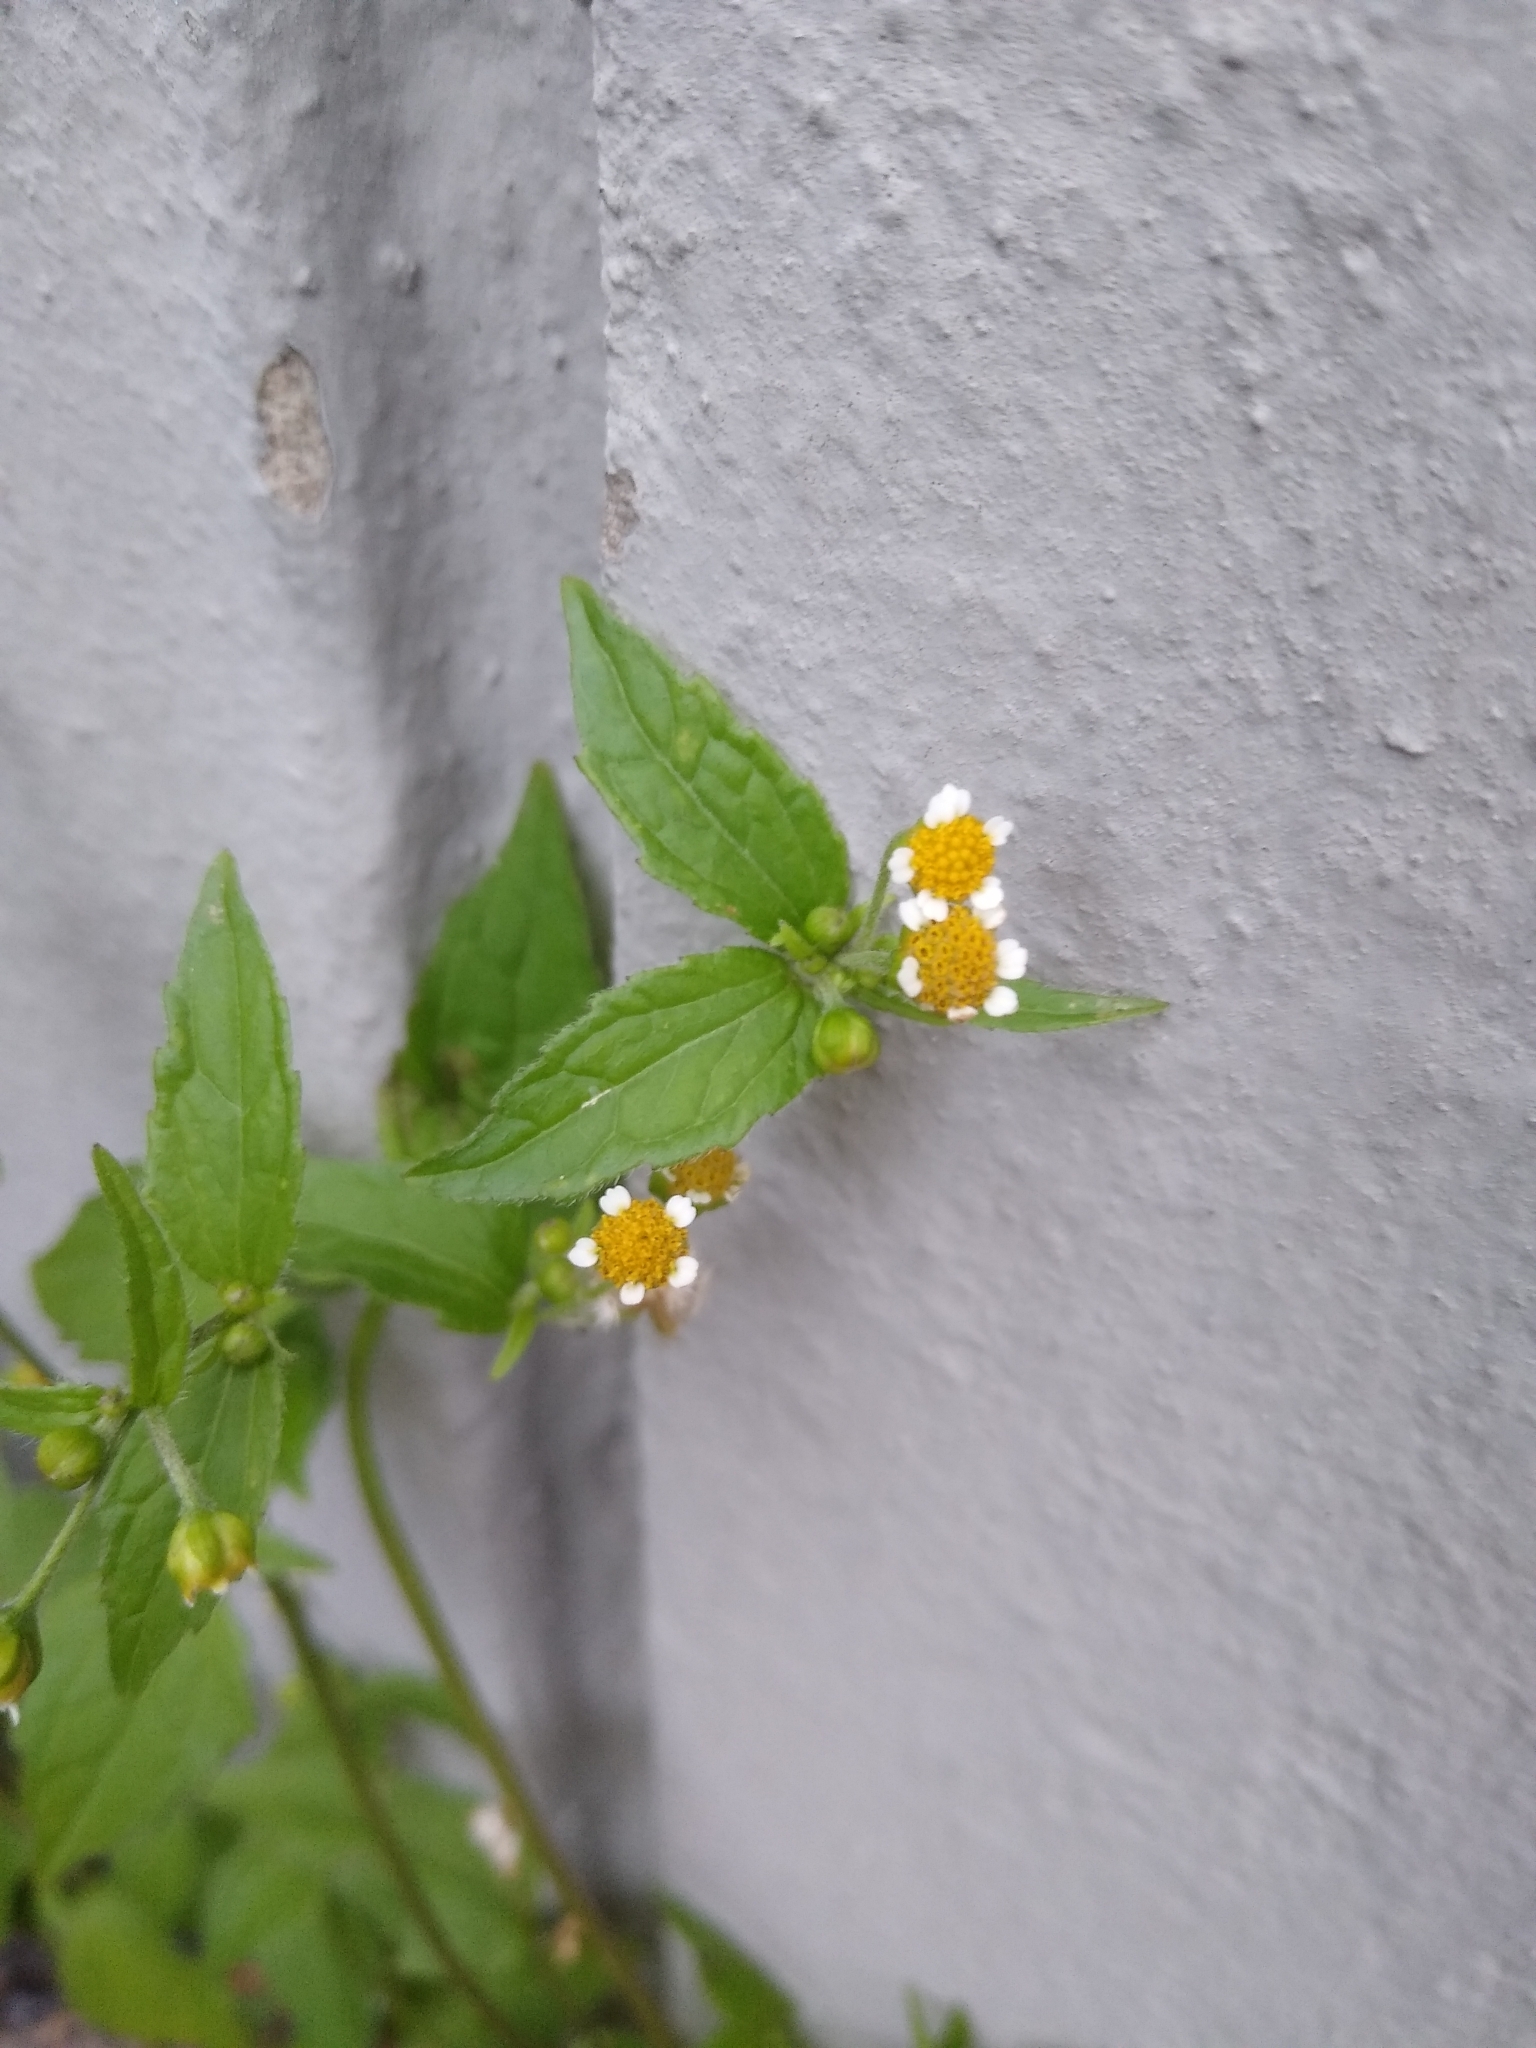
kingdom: Plantae
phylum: Tracheophyta
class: Magnoliopsida
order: Asterales
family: Asteraceae
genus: Galinsoga
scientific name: Galinsoga quadriradiata
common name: Shaggy soldier
